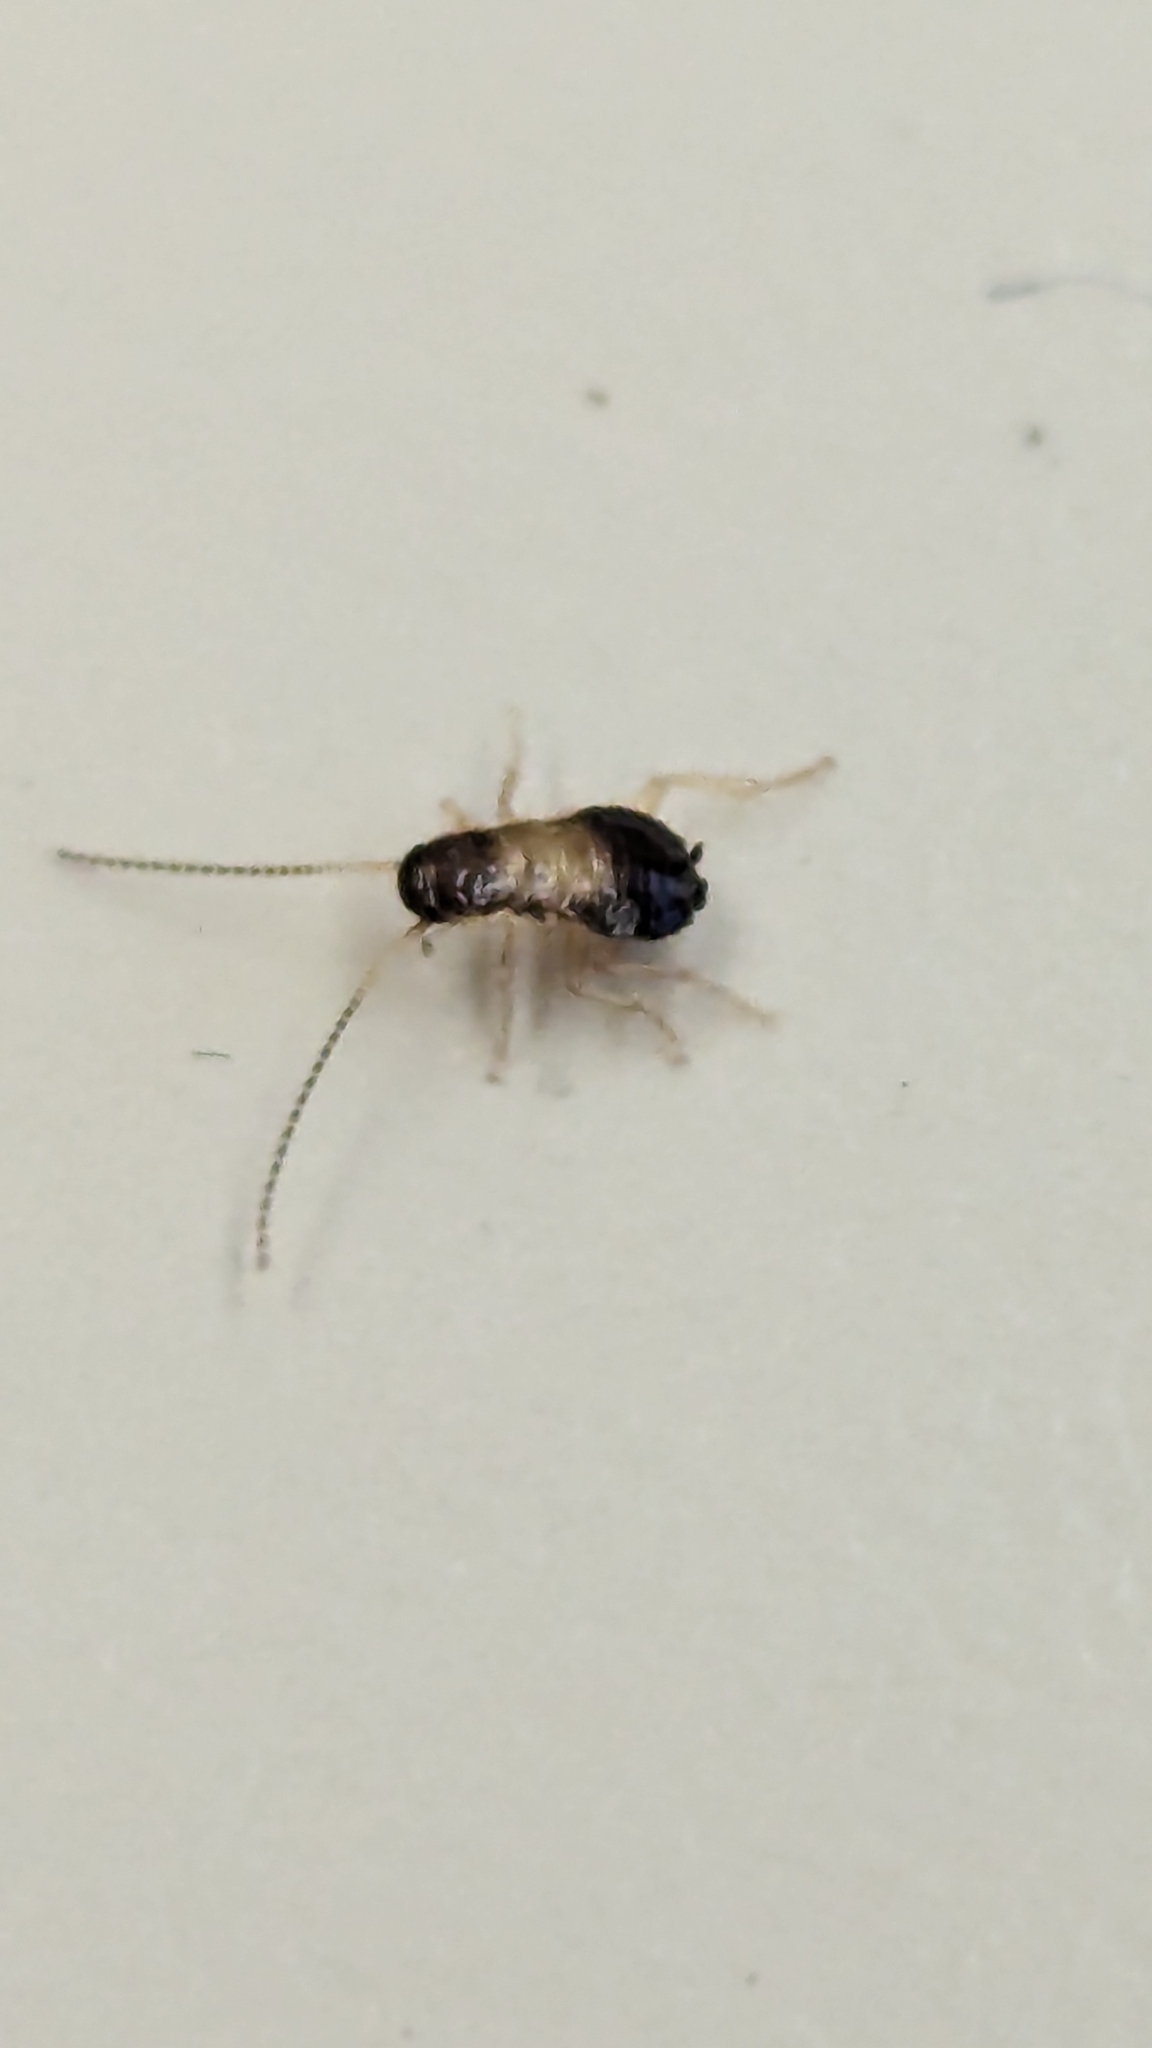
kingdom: Animalia
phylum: Arthropoda
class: Insecta
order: Blattodea
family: Ectobiidae
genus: Blattella
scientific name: Blattella germanica
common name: German cockroach
